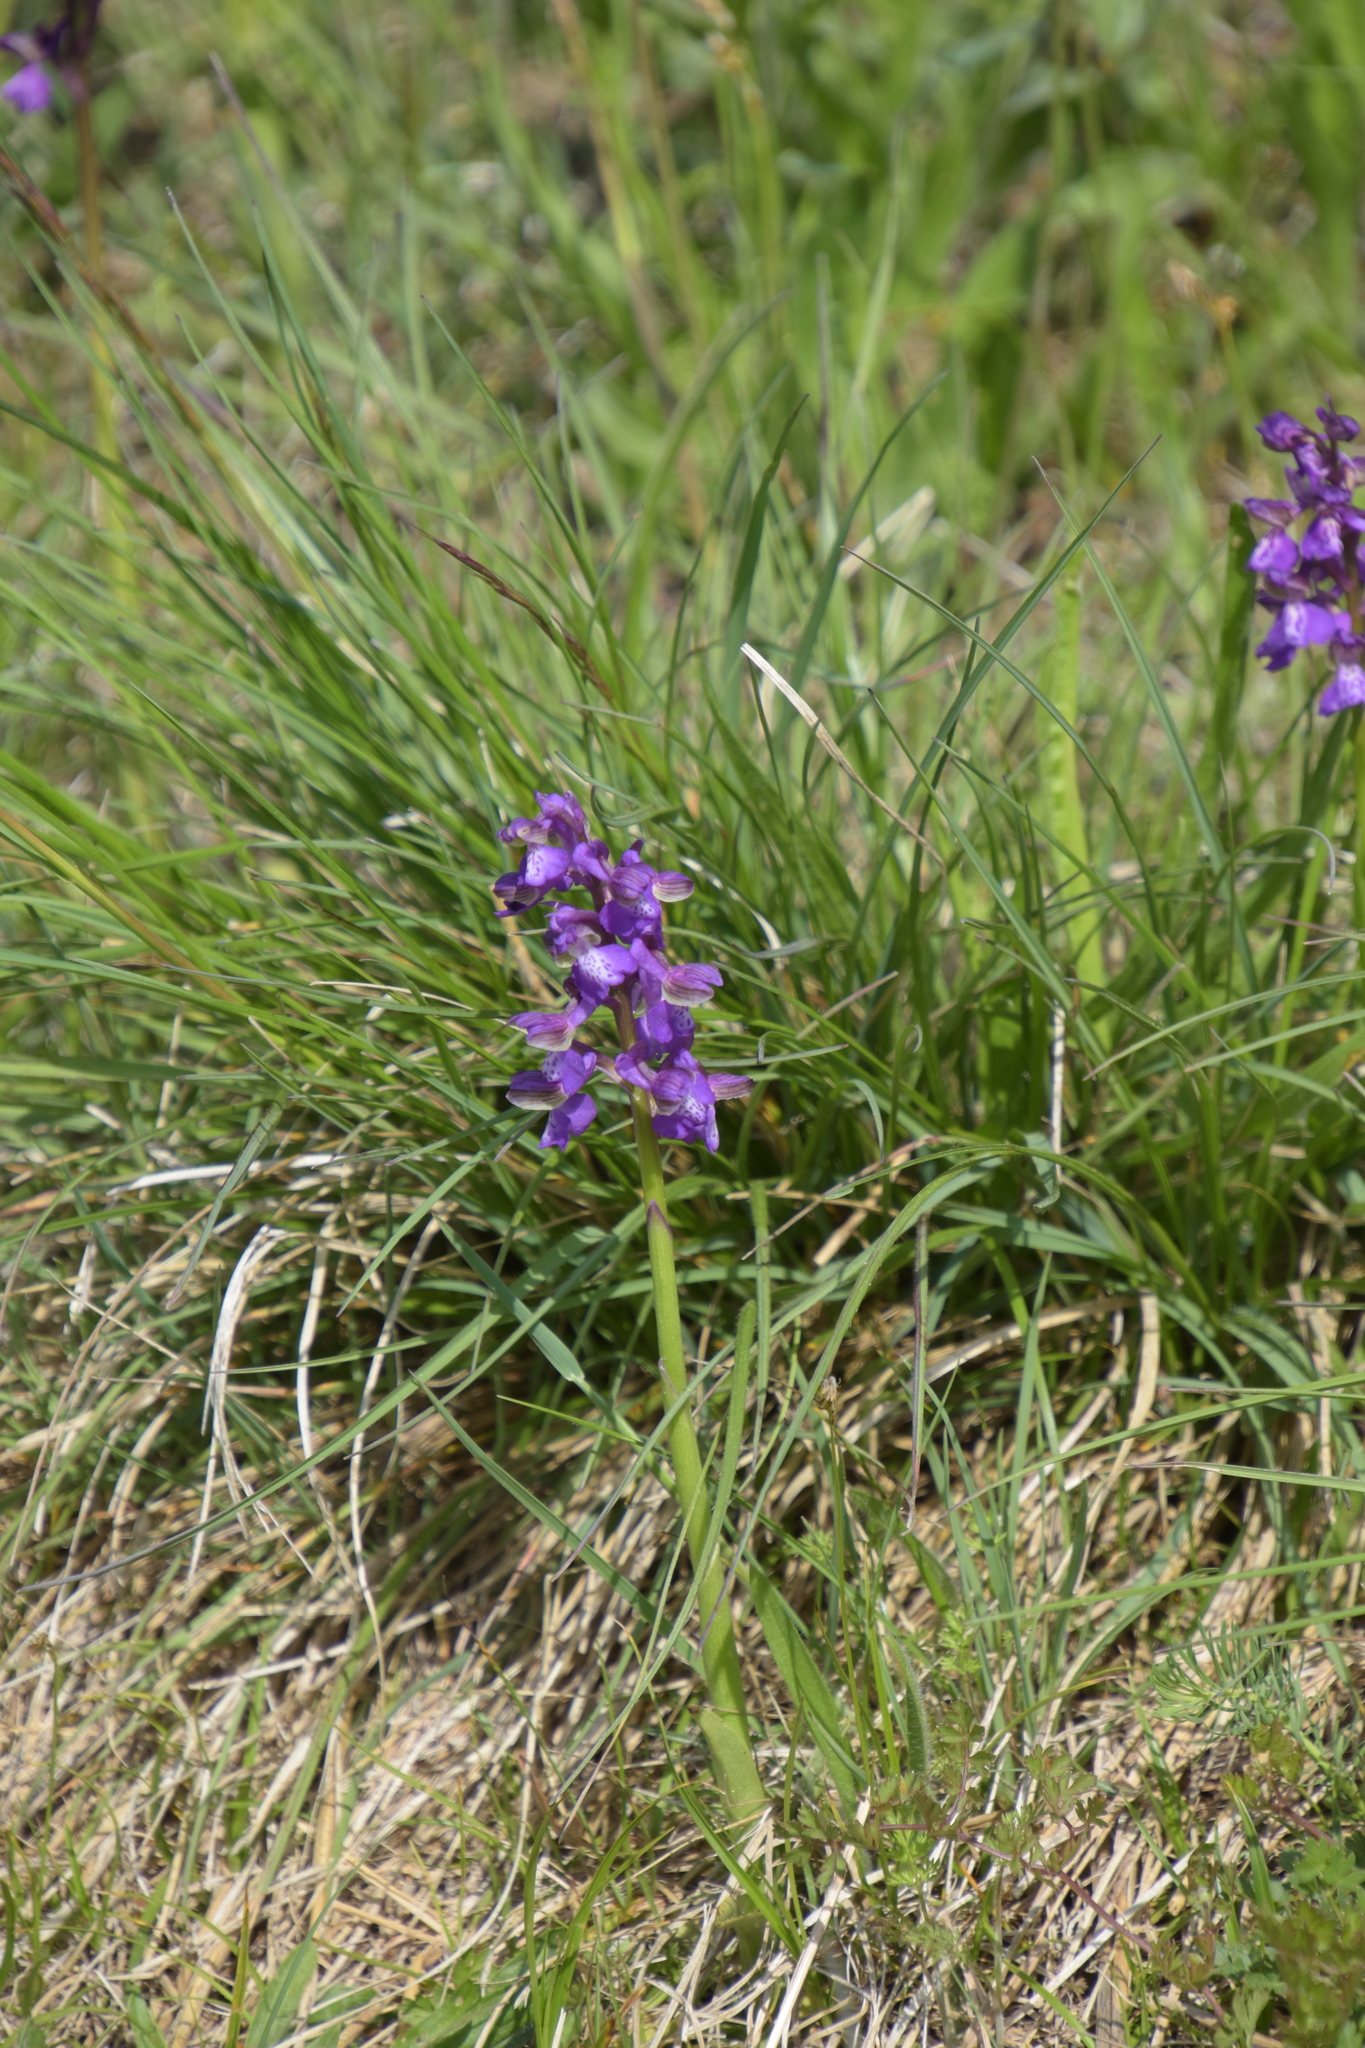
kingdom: Plantae
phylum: Tracheophyta
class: Liliopsida
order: Asparagales
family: Orchidaceae
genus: Anacamptis
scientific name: Anacamptis morio
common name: Green-winged orchid
